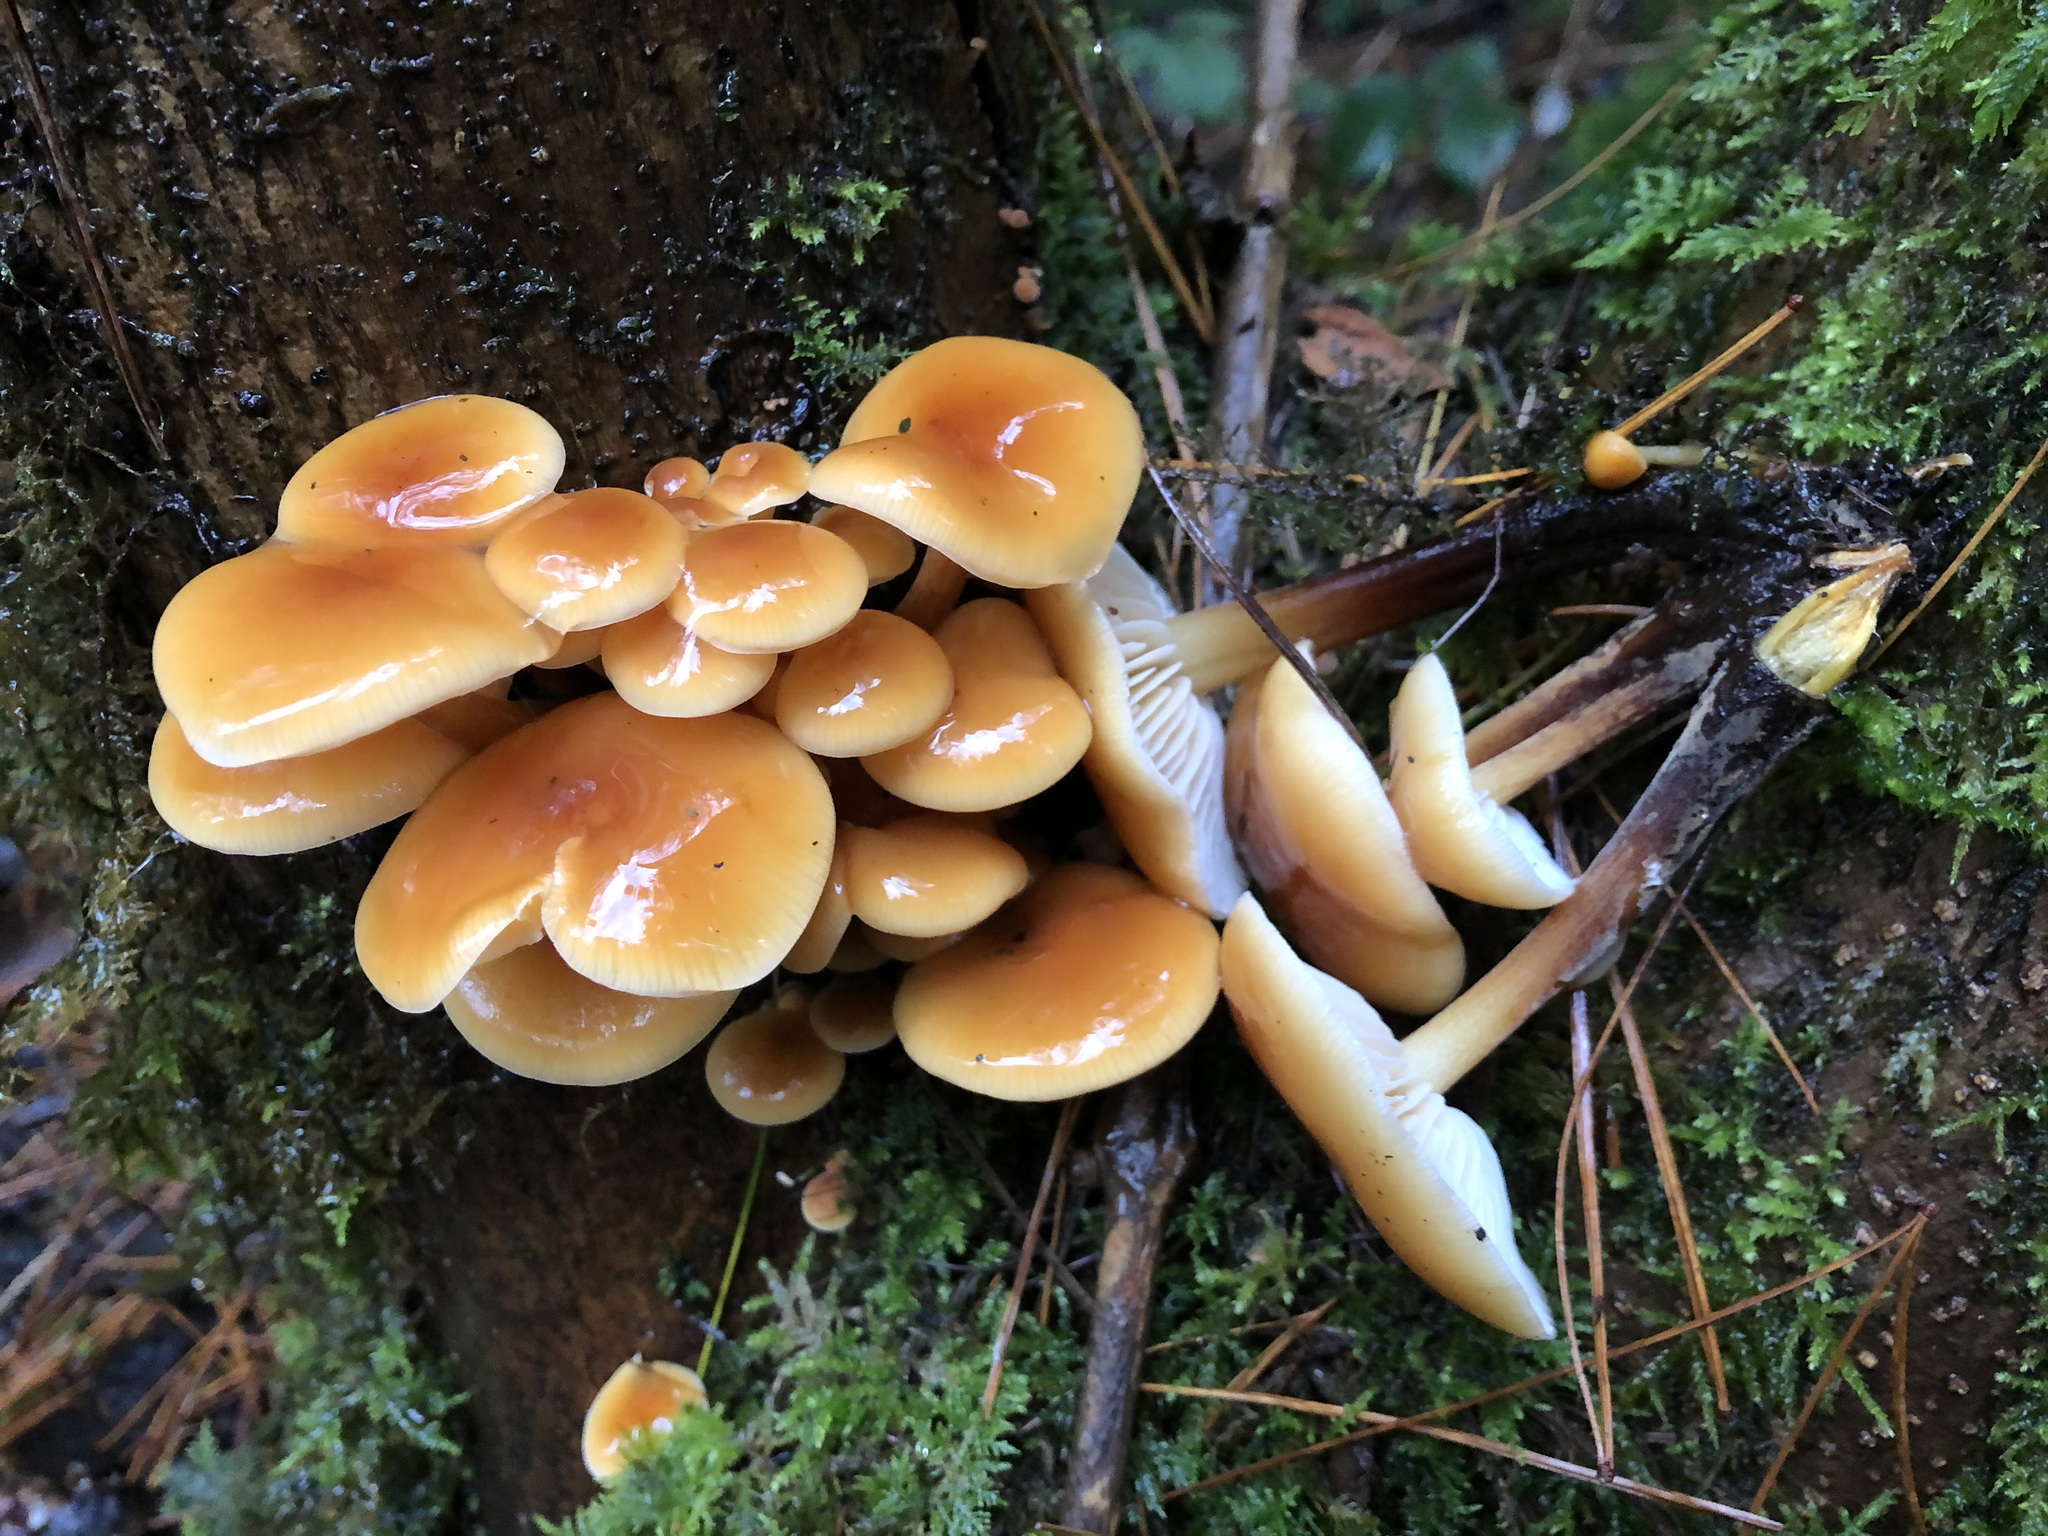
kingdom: Fungi
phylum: Basidiomycota
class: Agaricomycetes
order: Agaricales
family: Physalacriaceae
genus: Flammulina
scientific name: Flammulina
